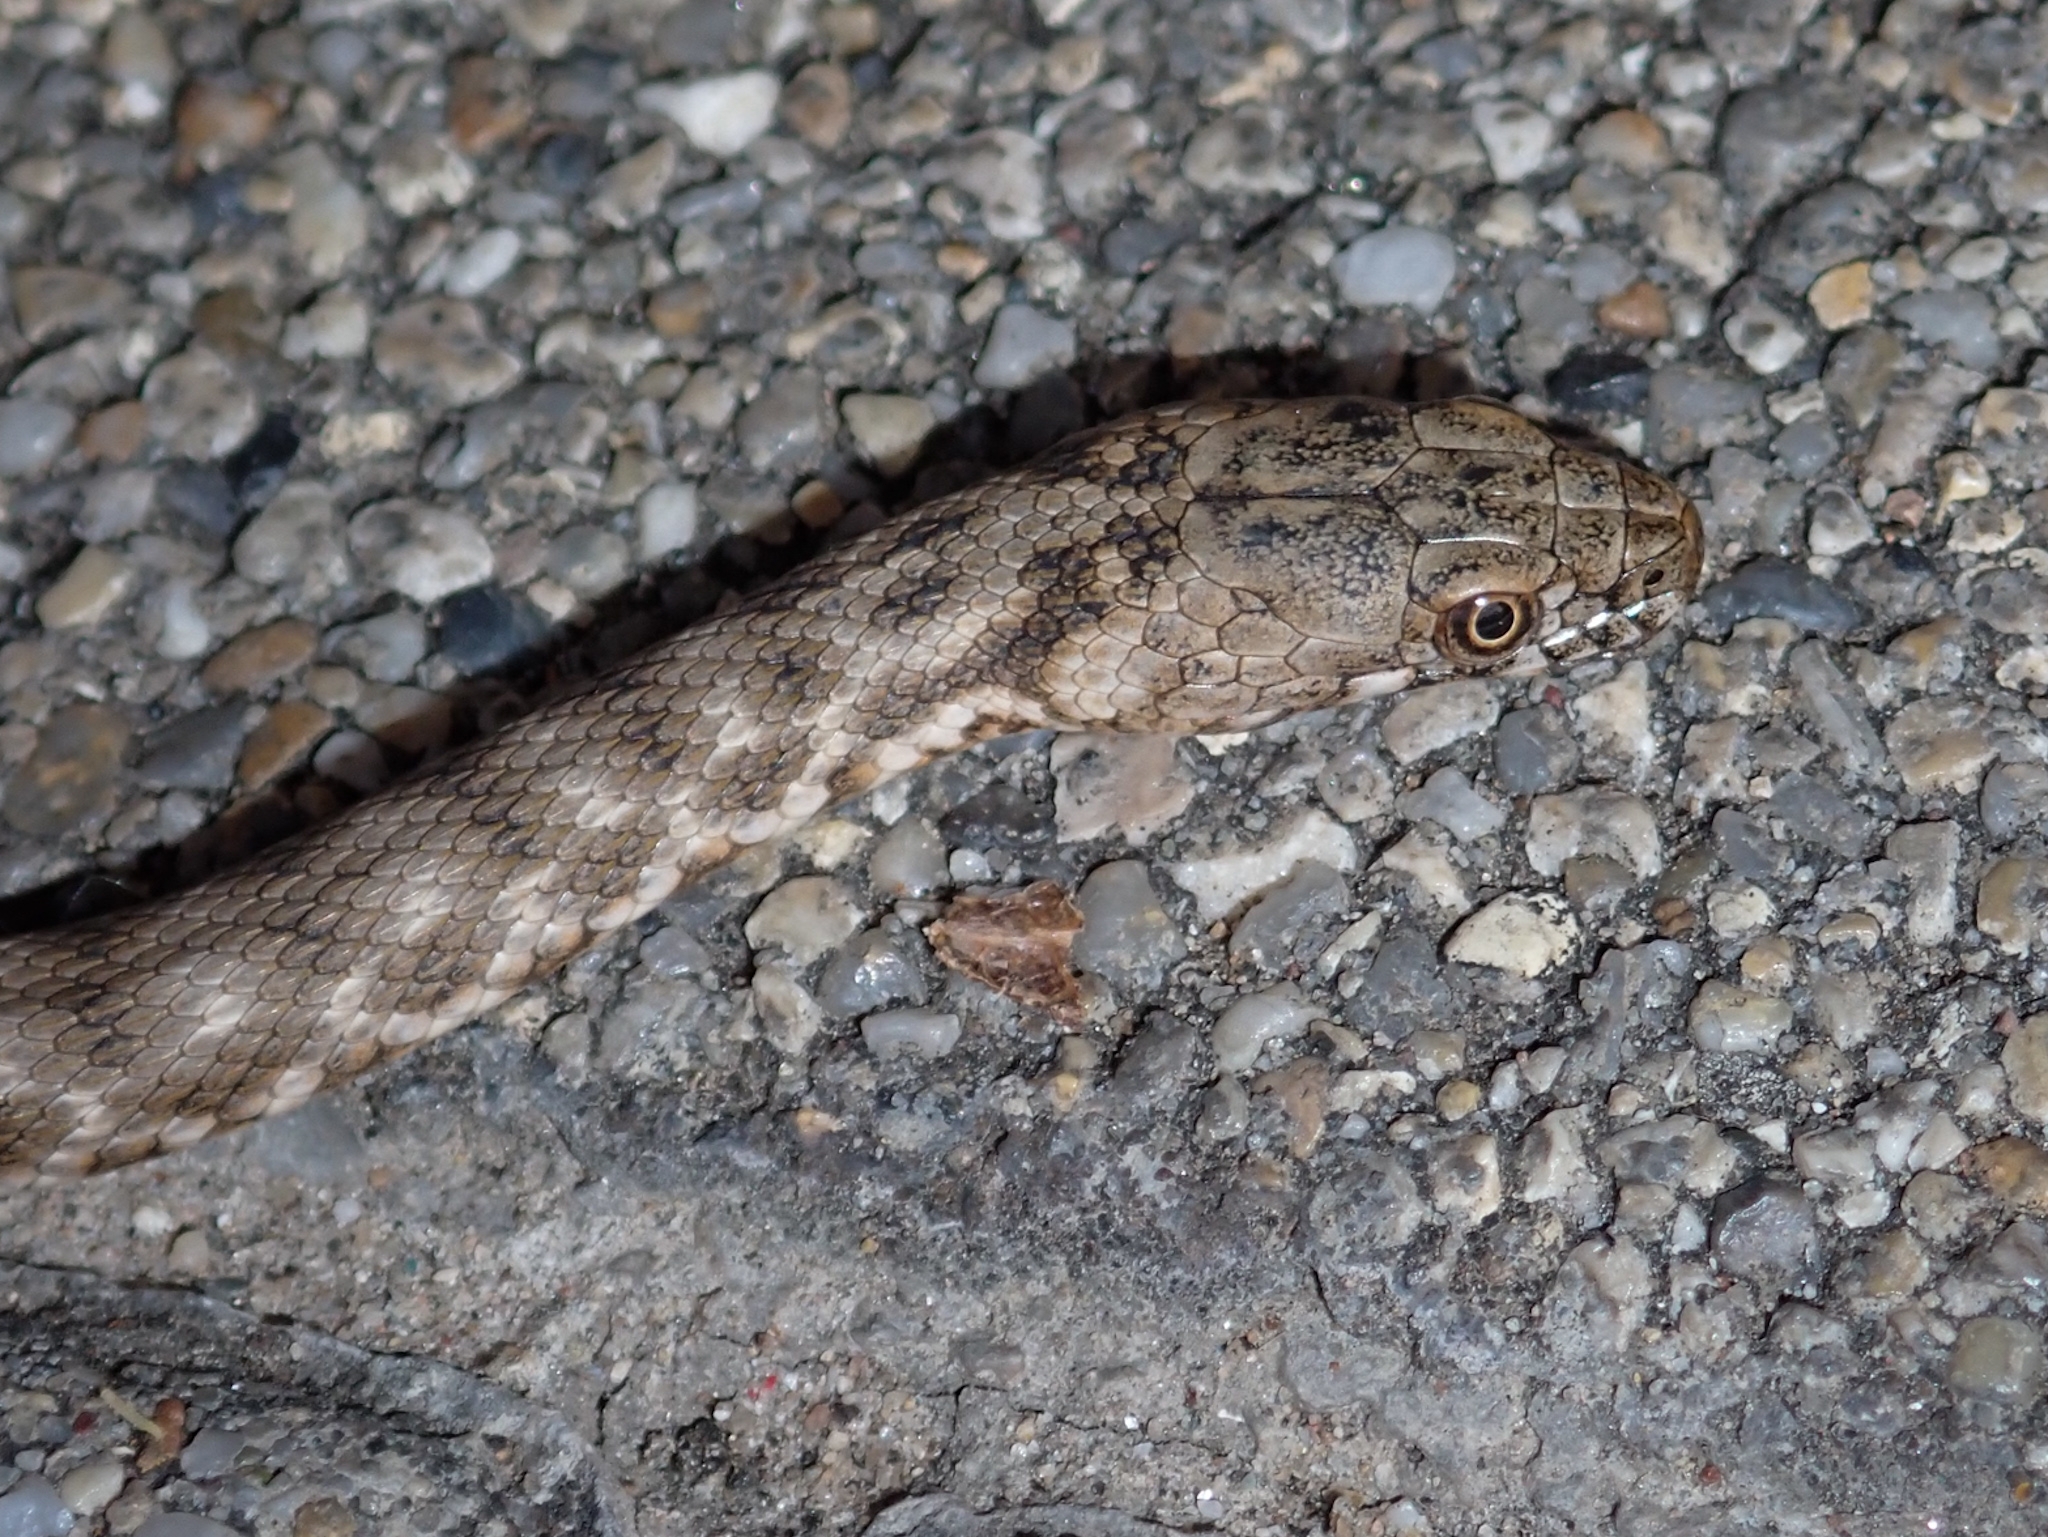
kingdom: Animalia
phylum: Chordata
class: Squamata
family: Colubridae
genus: Natrix
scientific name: Natrix tessellata
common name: Dice snake
